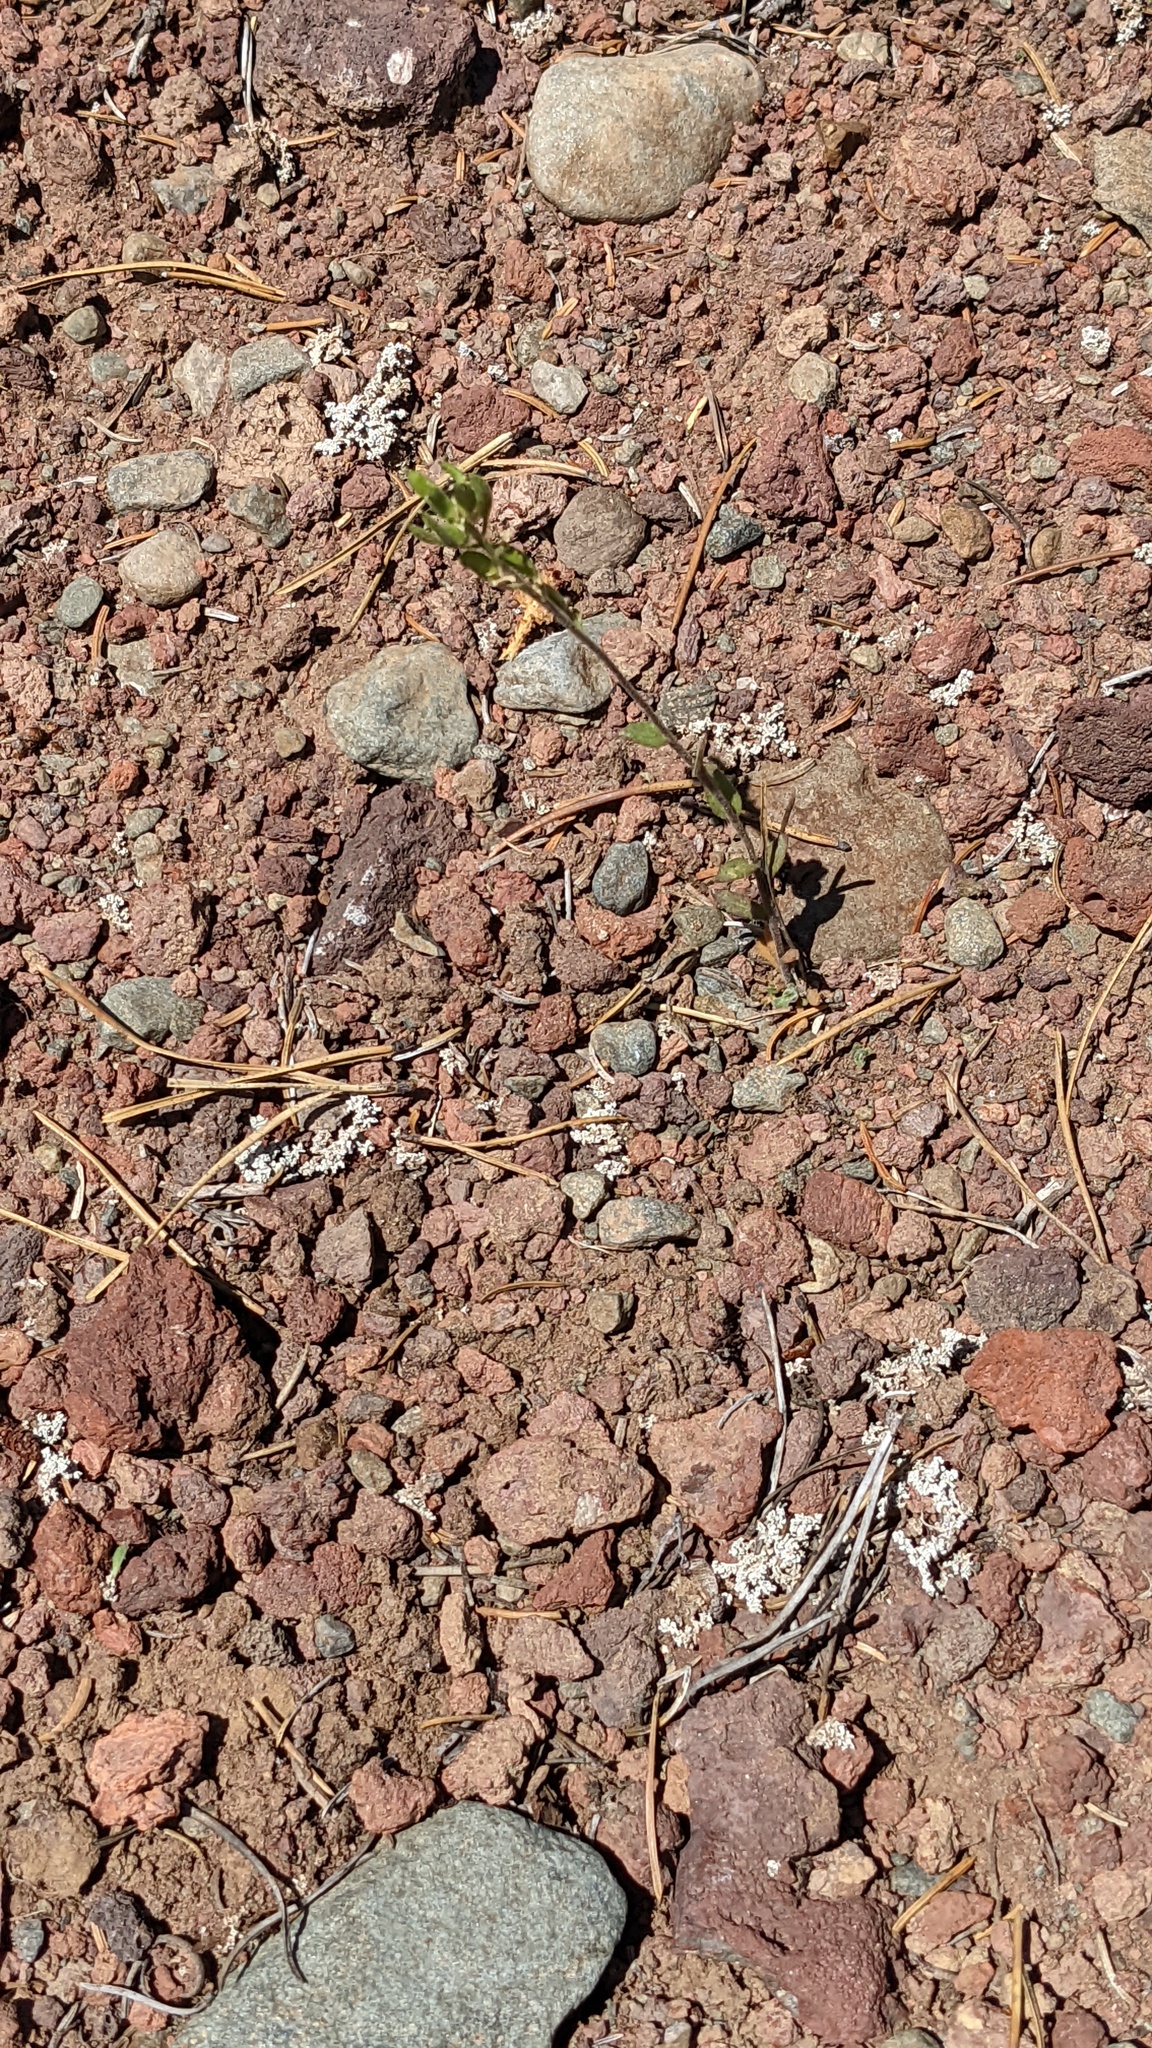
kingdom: Plantae
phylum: Tracheophyta
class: Magnoliopsida
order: Brassicales
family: Brassicaceae
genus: Draba
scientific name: Draba aurea
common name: Golden draba
